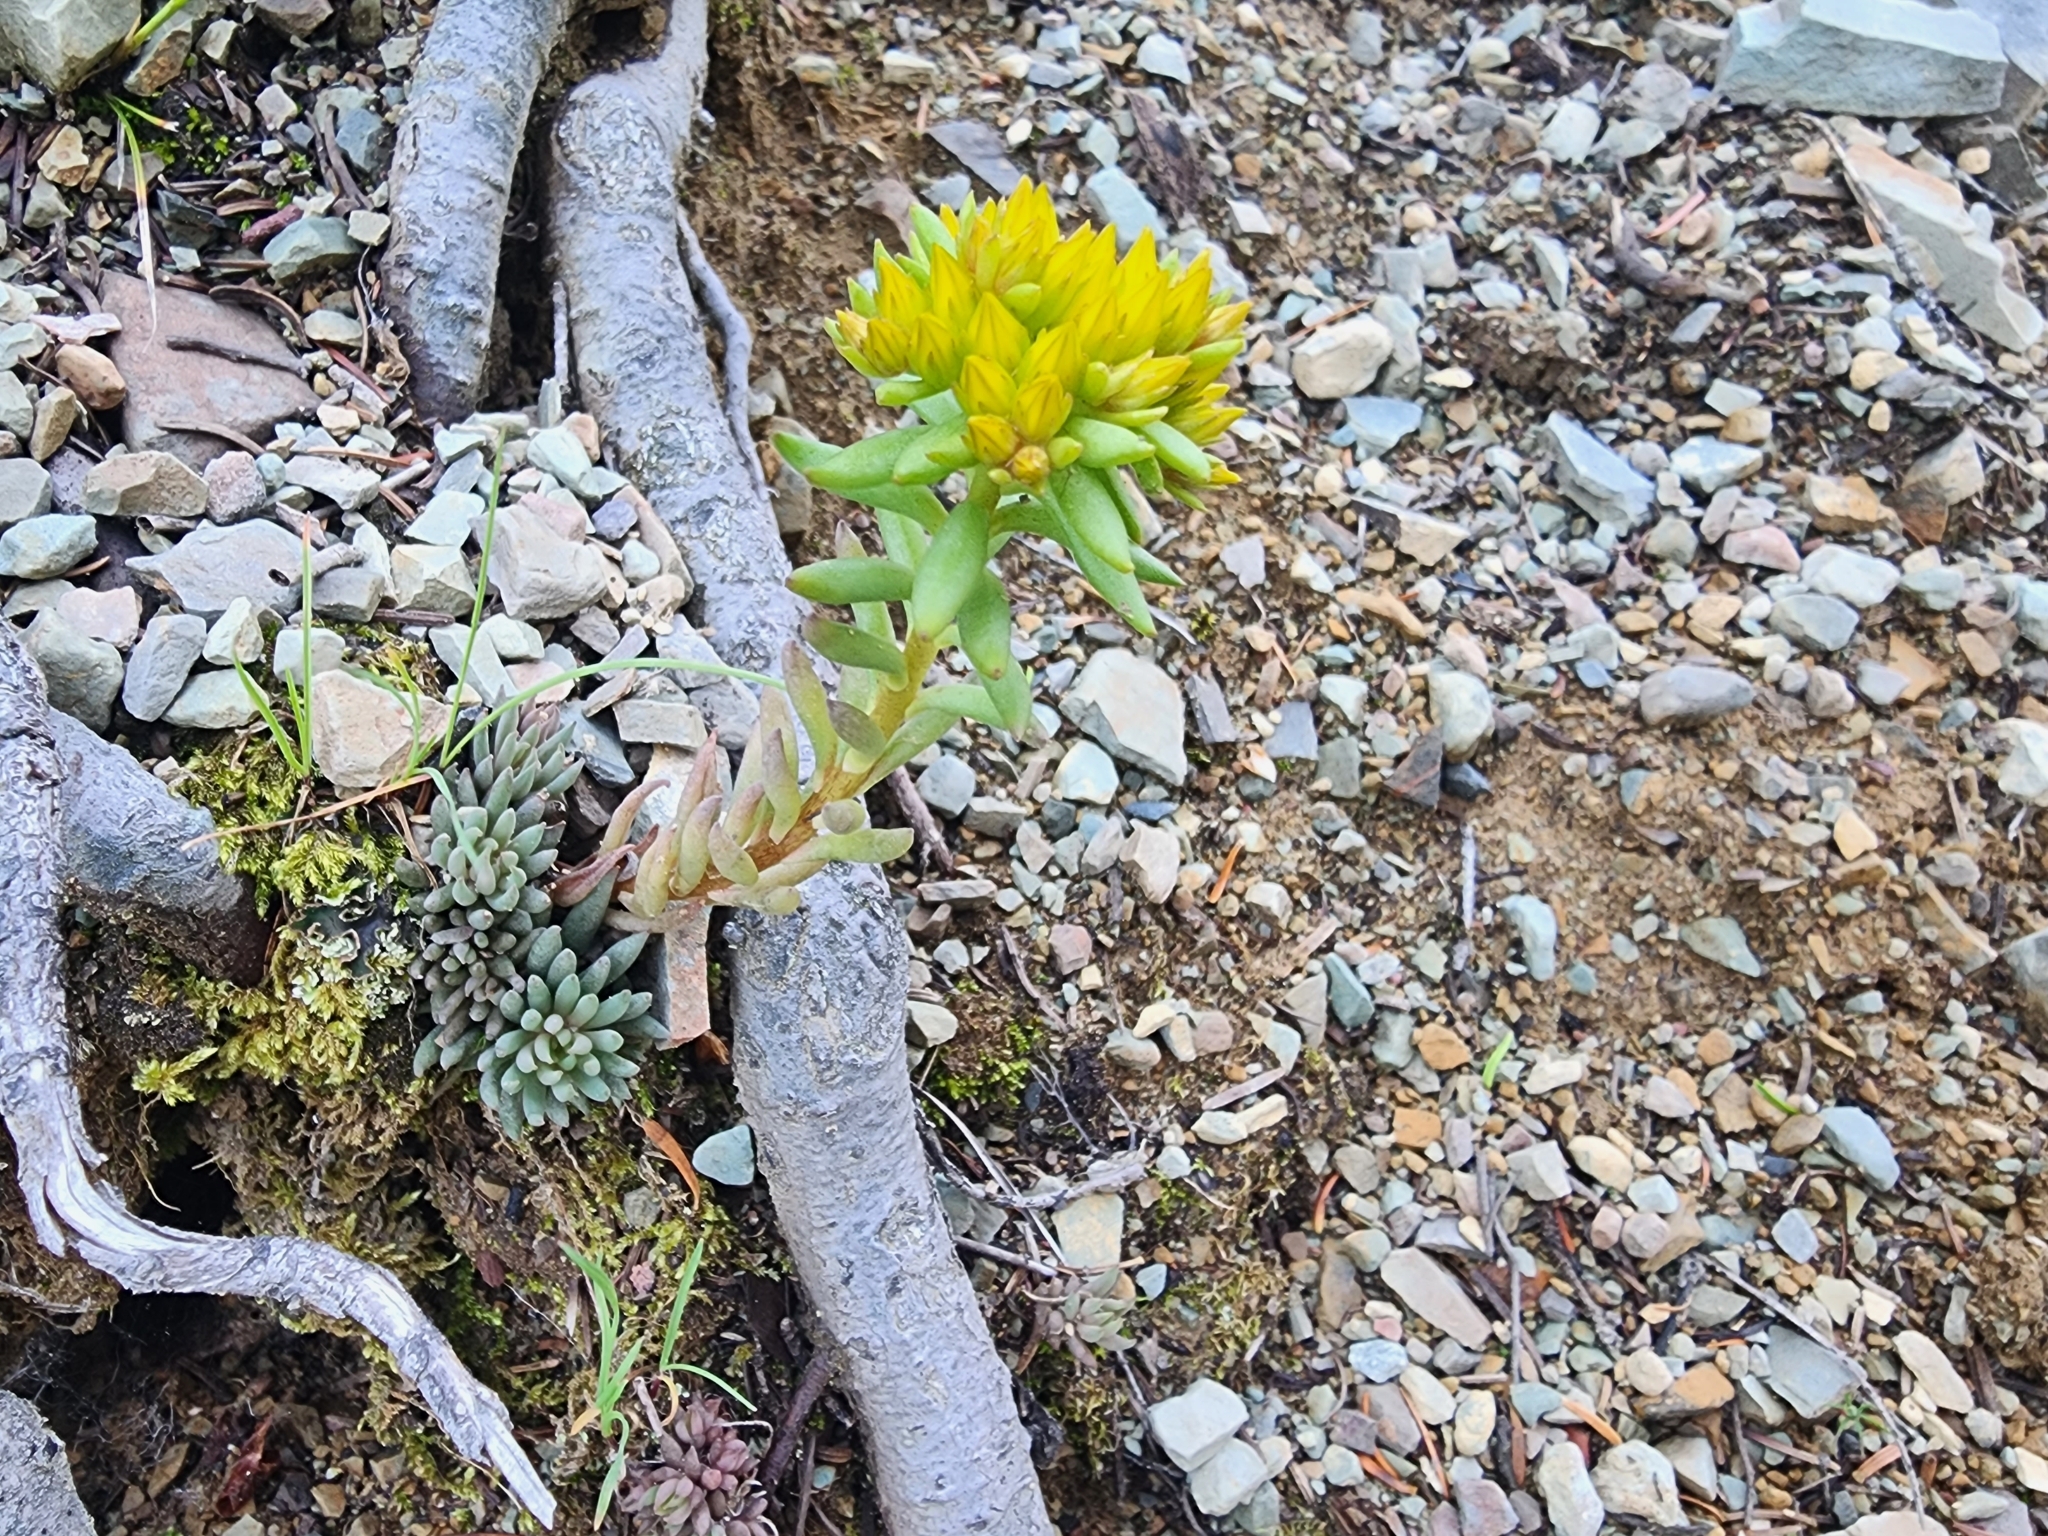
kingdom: Plantae
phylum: Tracheophyta
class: Magnoliopsida
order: Saxifragales
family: Crassulaceae
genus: Sedum
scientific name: Sedum lanceolatum
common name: Common stonecrop
